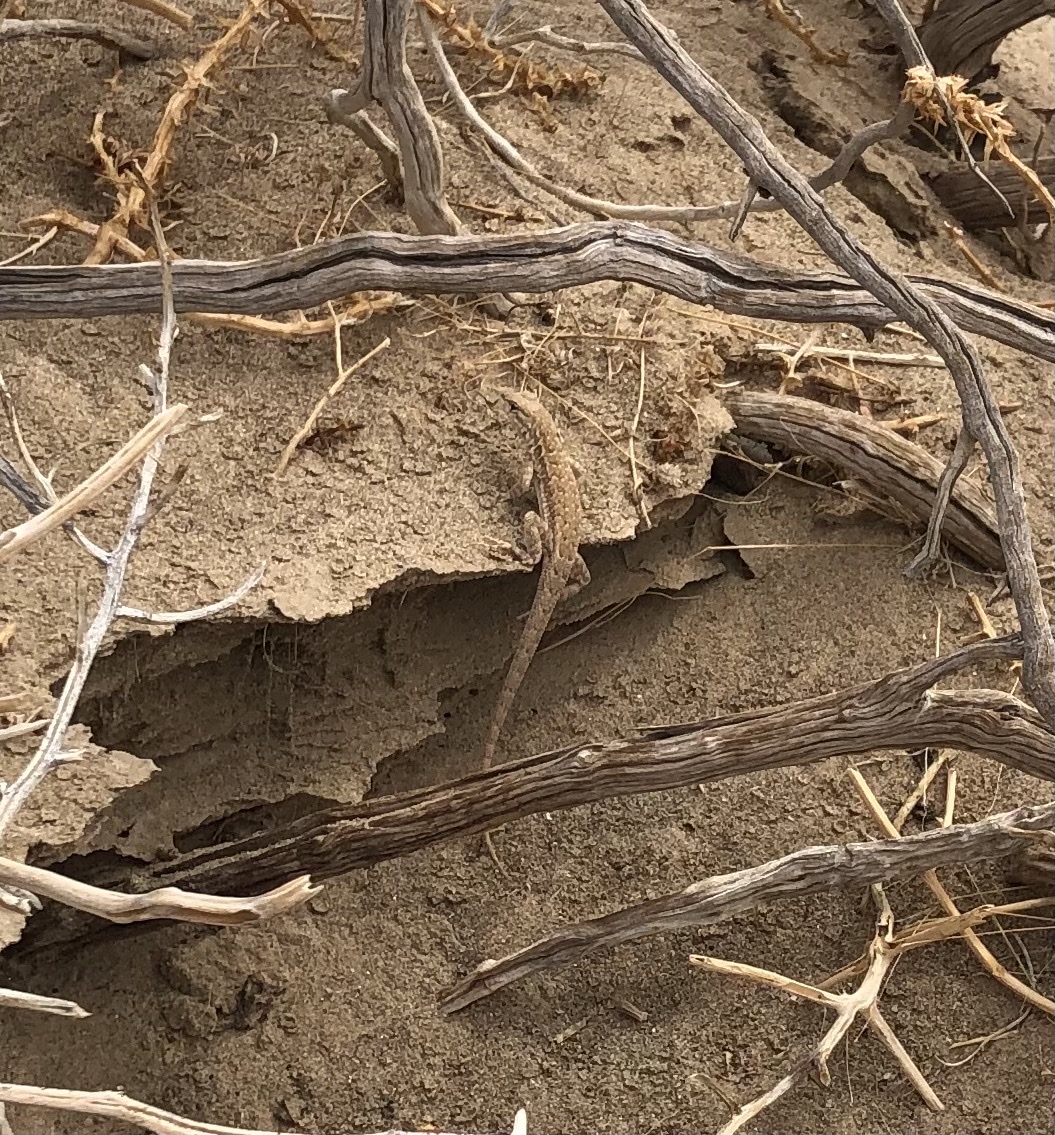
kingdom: Animalia
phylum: Chordata
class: Squamata
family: Phrynosomatidae
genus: Uta
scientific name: Uta stansburiana
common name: Side-blotched lizard
